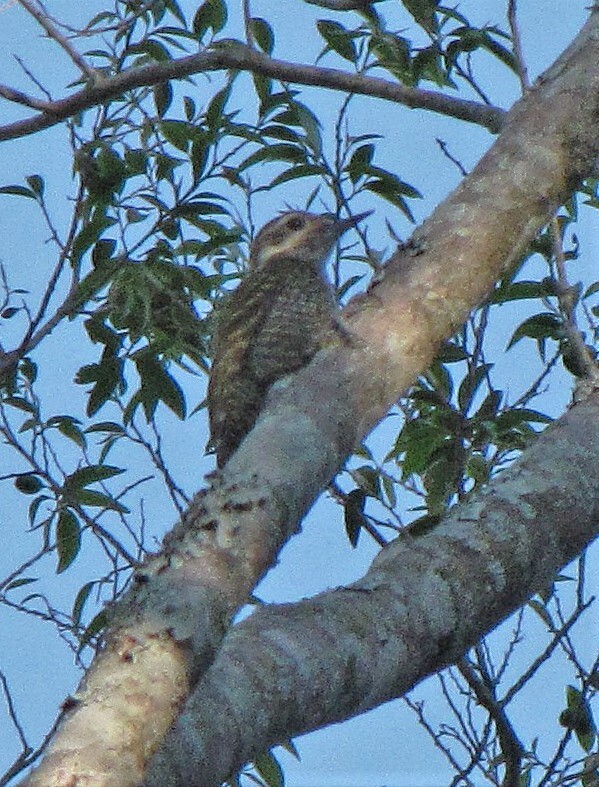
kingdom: Animalia
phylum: Chordata
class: Aves
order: Piciformes
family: Picidae
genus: Veniliornis
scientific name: Veniliornis spilogaster
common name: White-spotted woodpecker
